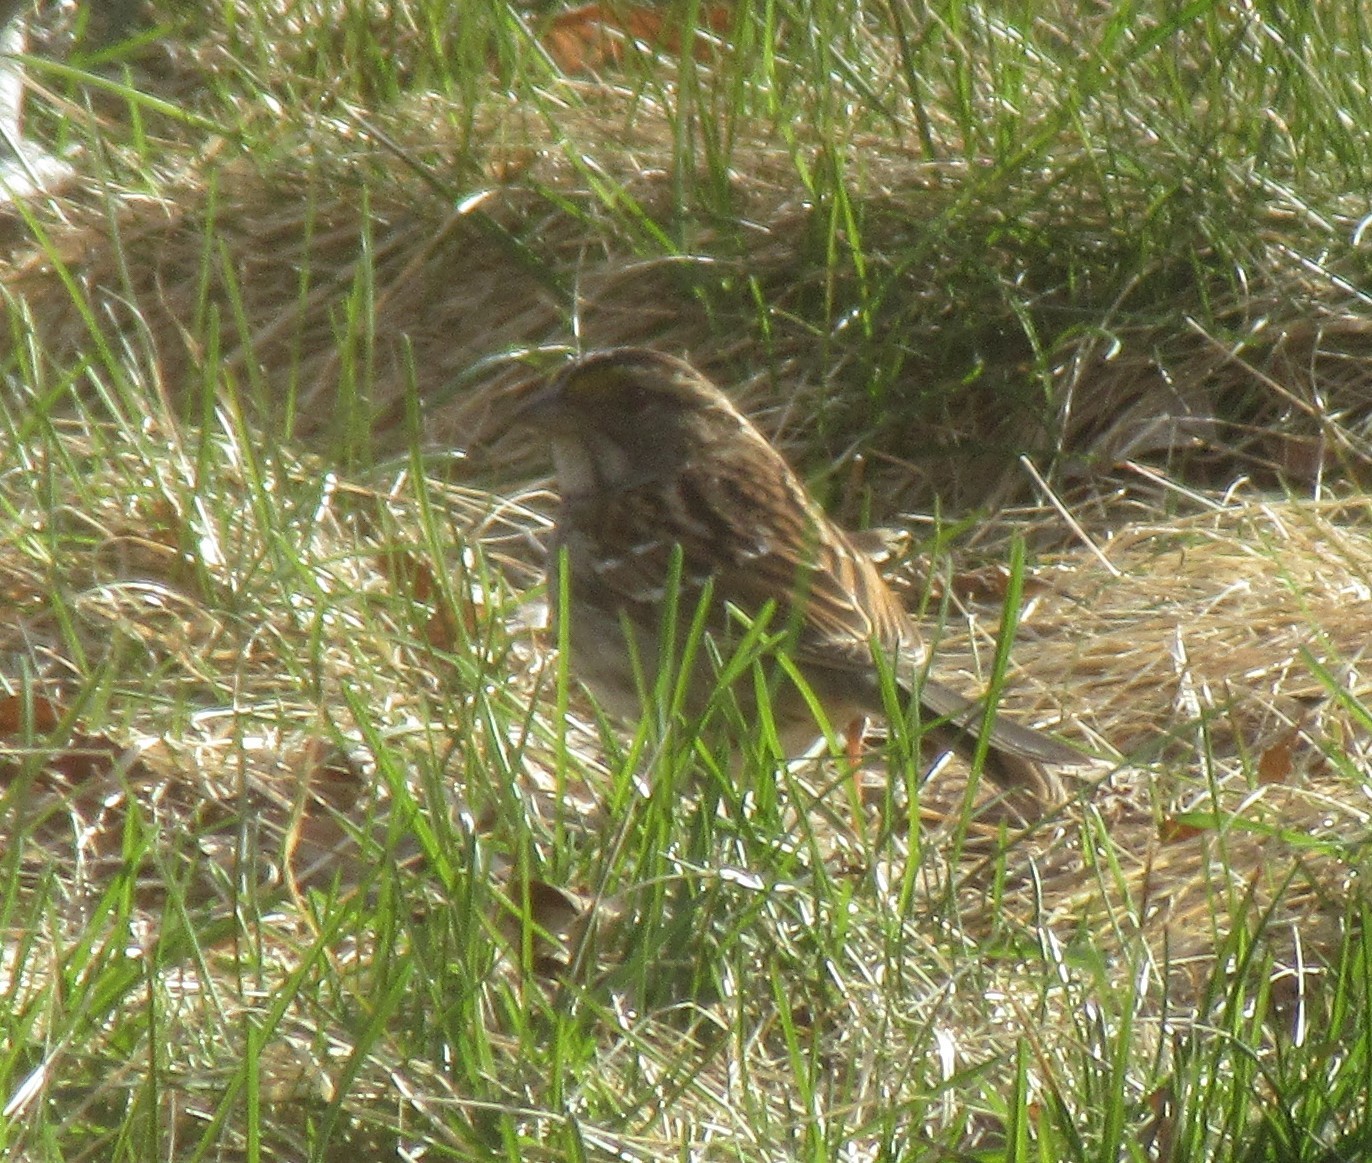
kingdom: Animalia
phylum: Chordata
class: Aves
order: Passeriformes
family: Passerellidae
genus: Zonotrichia
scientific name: Zonotrichia albicollis
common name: White-throated sparrow
